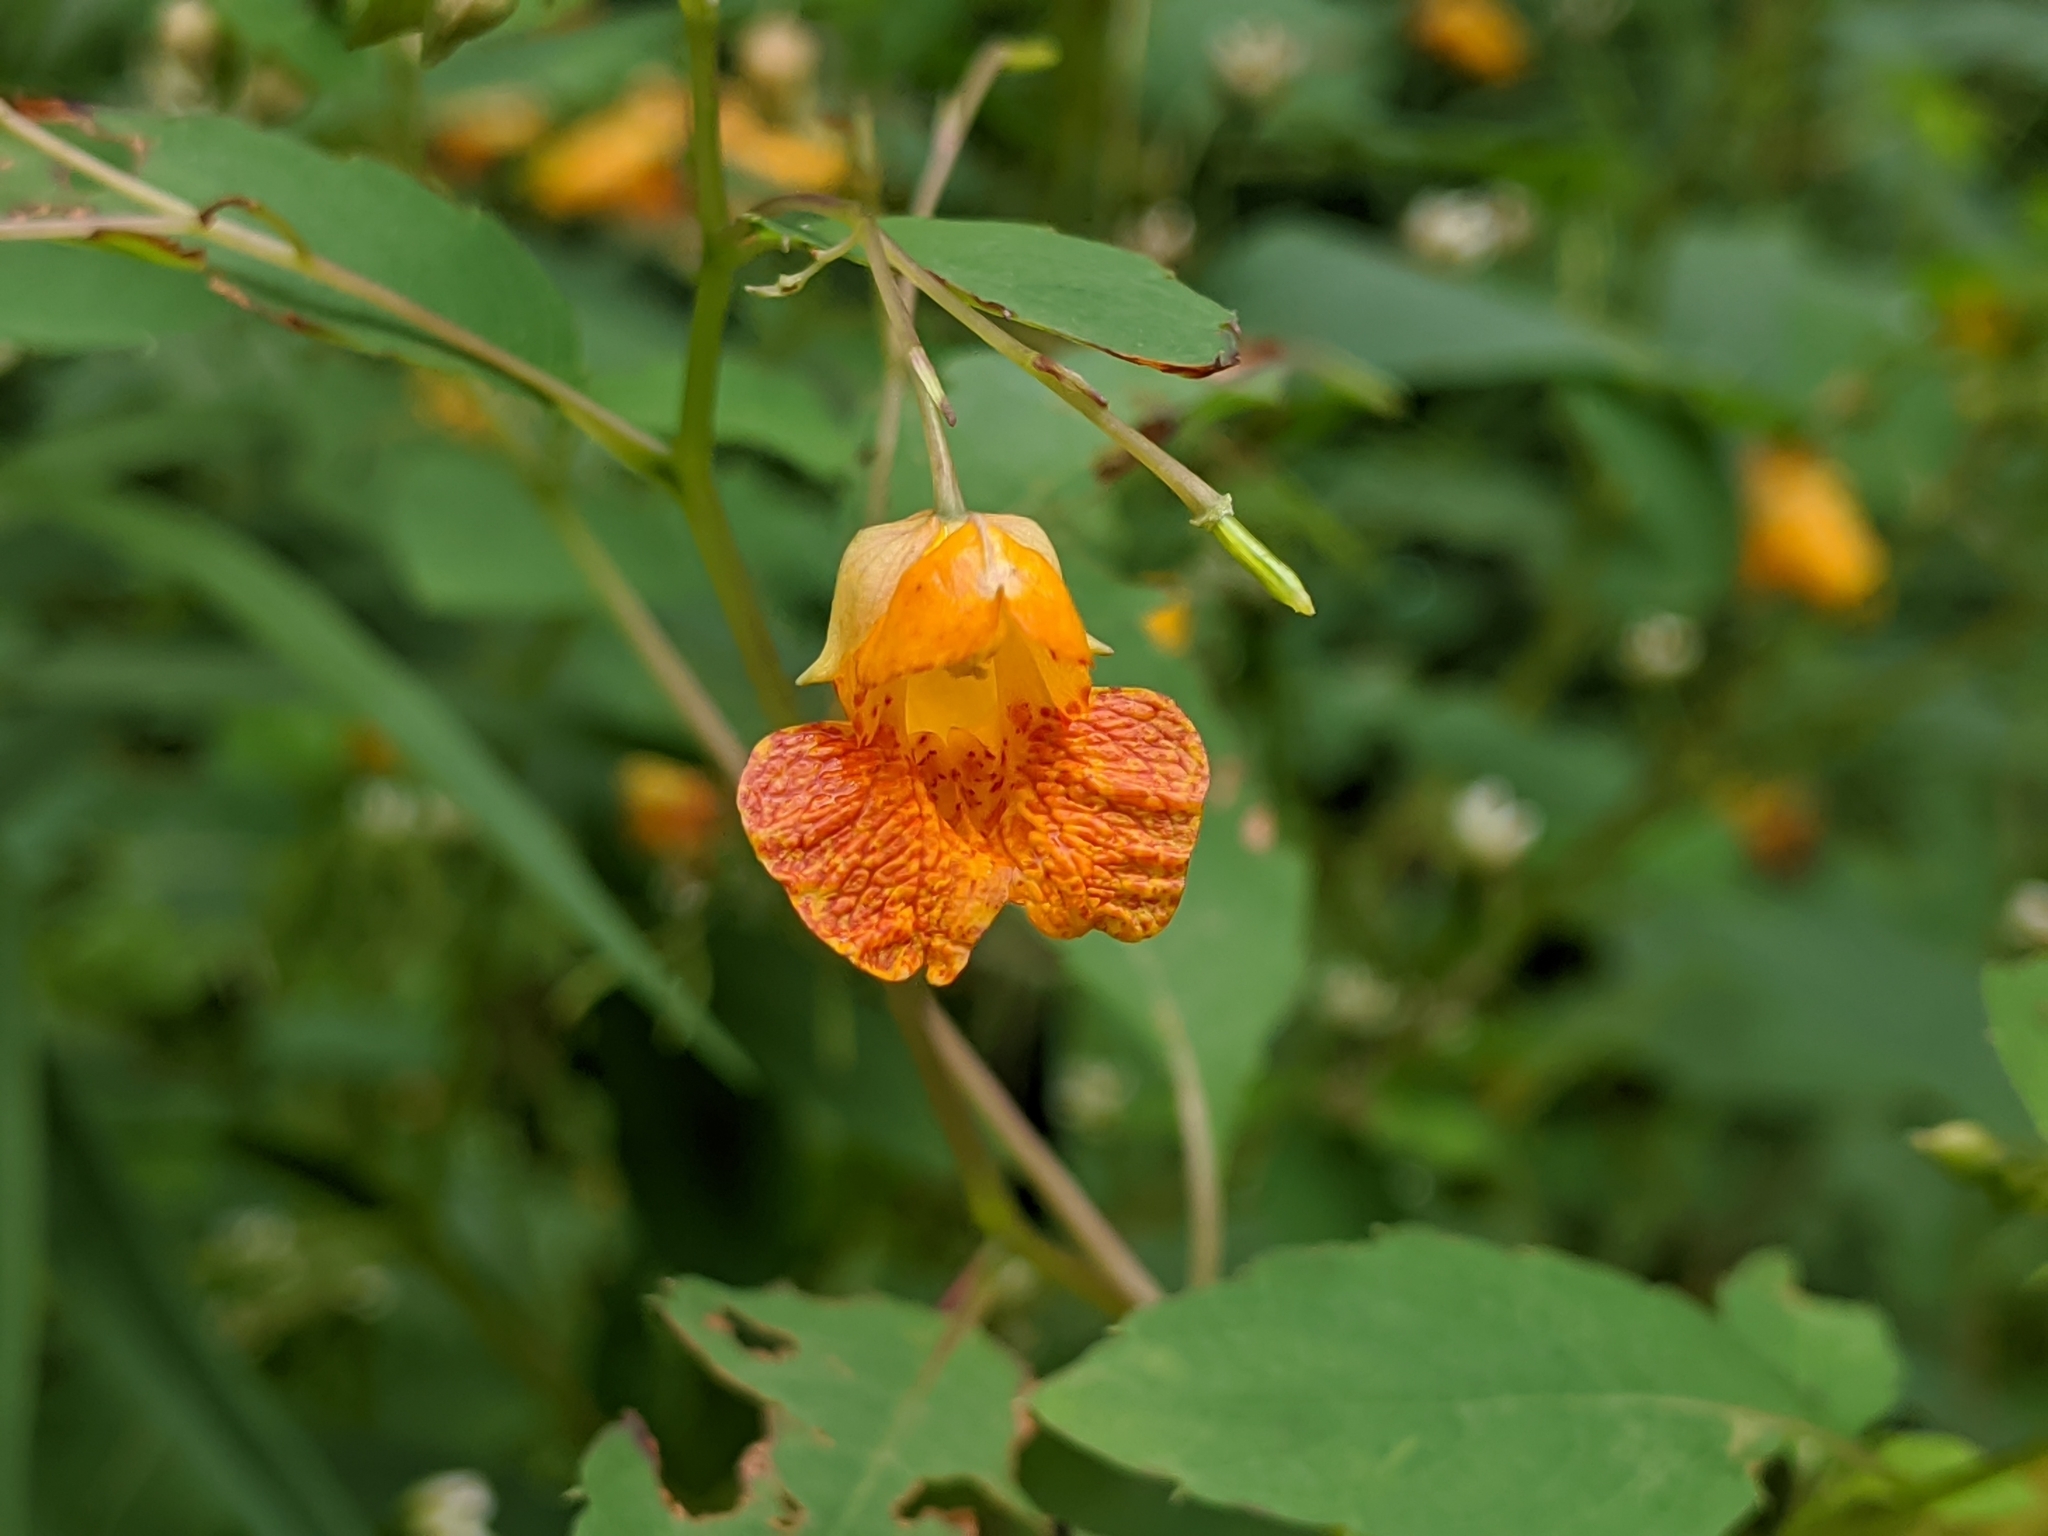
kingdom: Plantae
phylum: Tracheophyta
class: Magnoliopsida
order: Ericales
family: Balsaminaceae
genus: Impatiens
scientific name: Impatiens capensis
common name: Orange balsam
